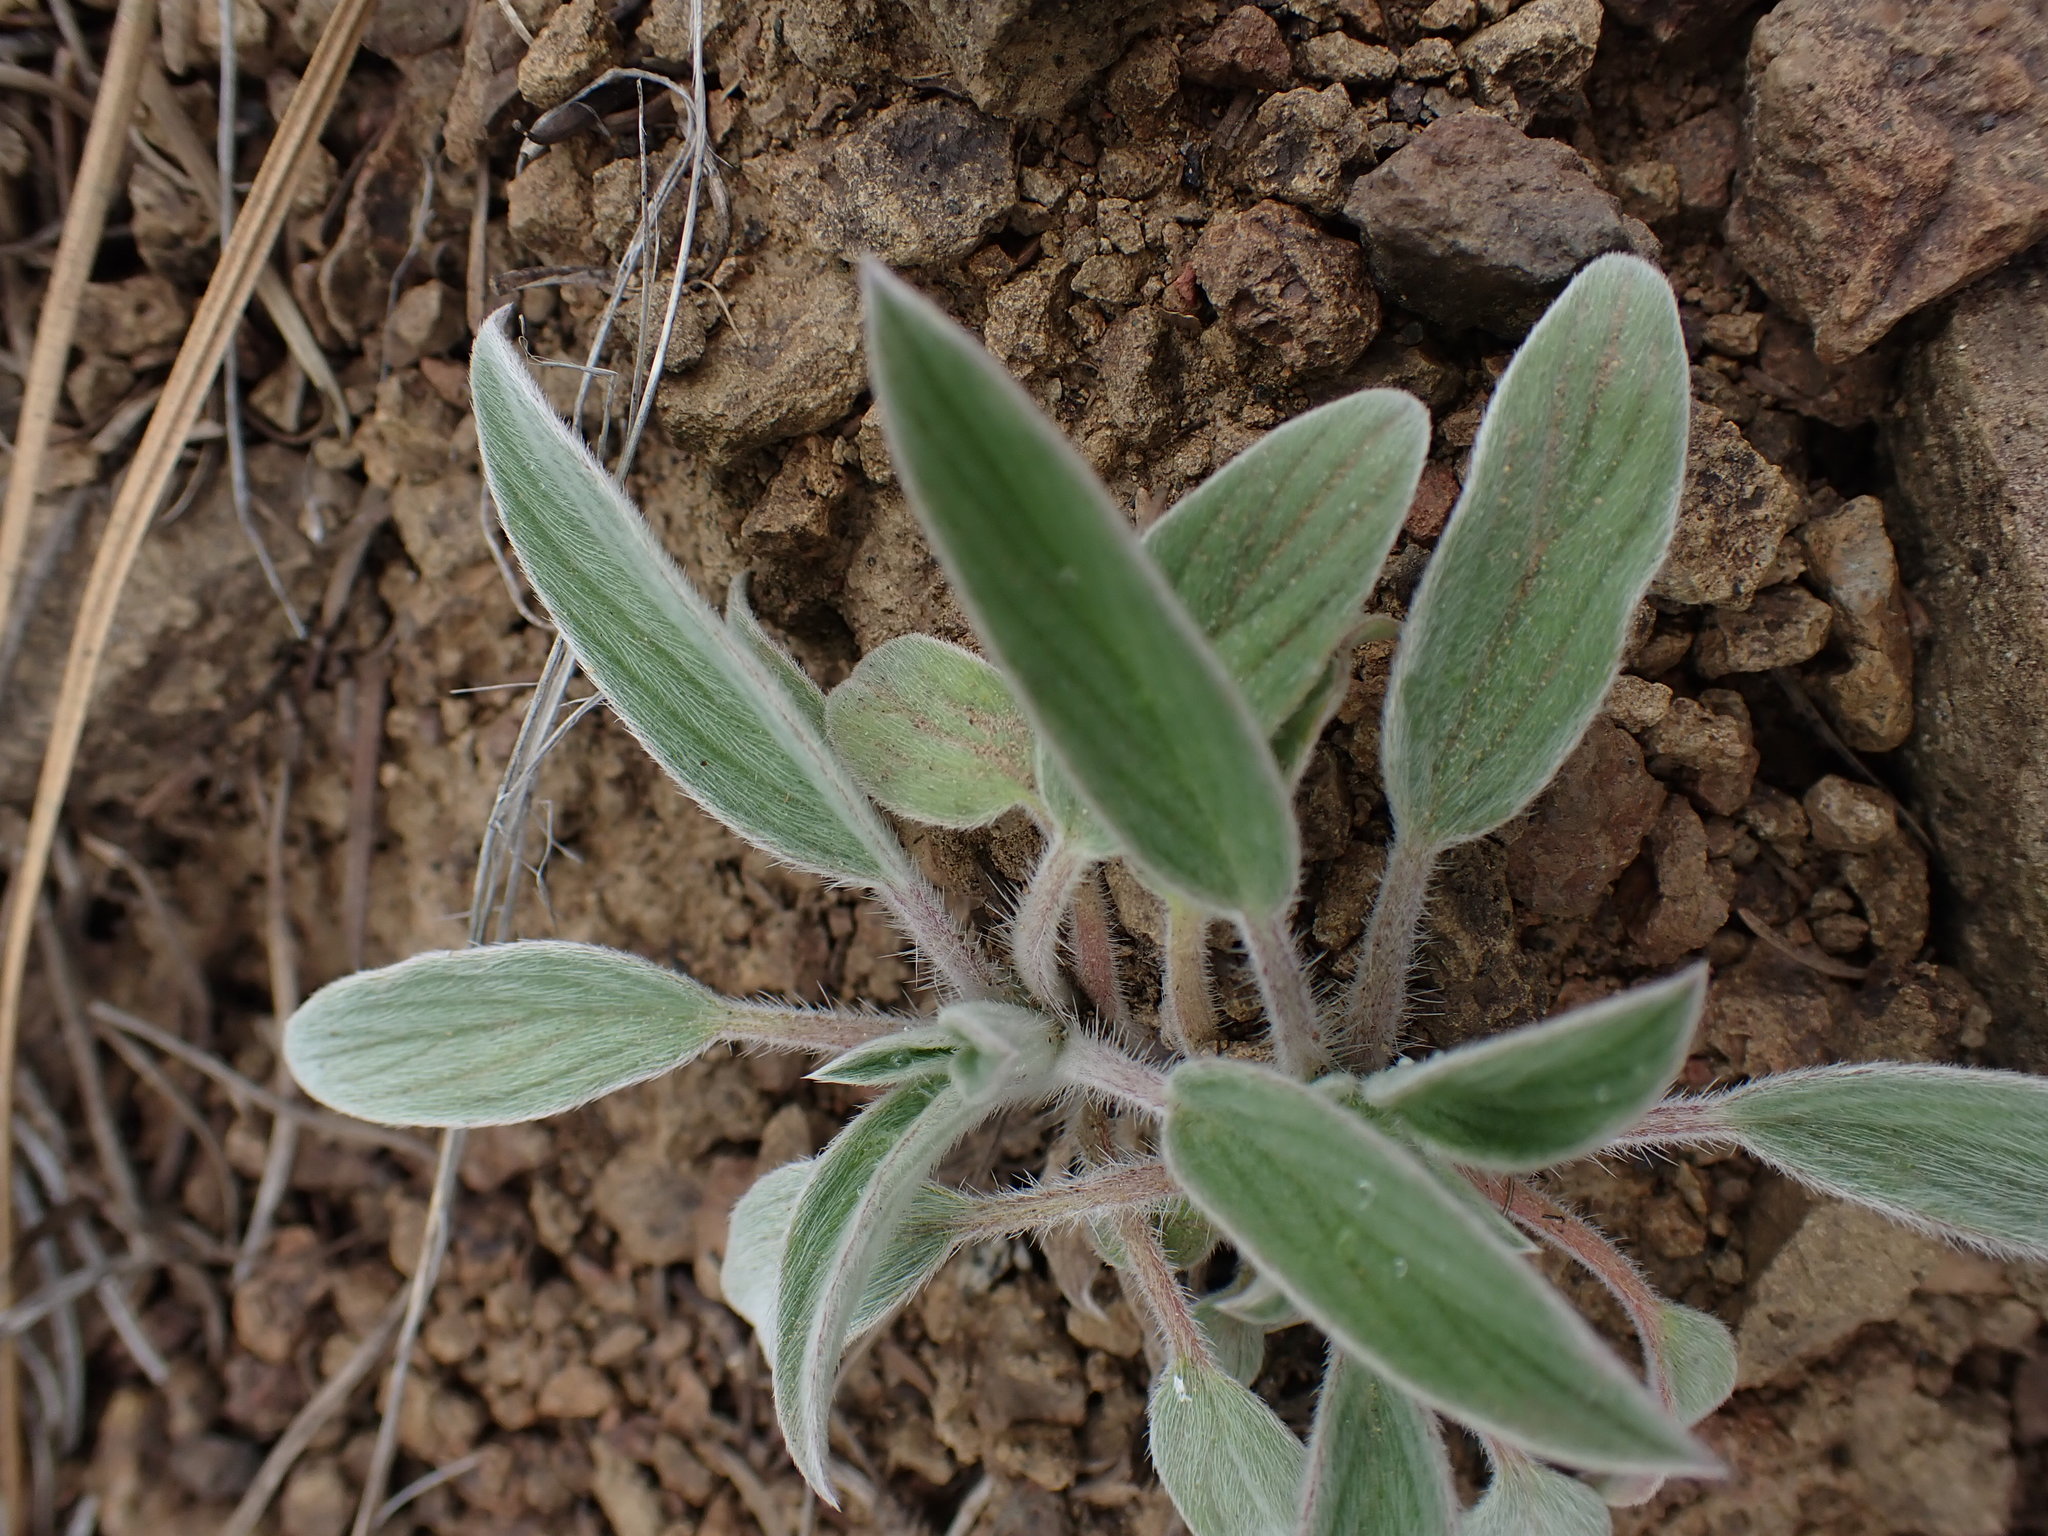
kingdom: Plantae
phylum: Tracheophyta
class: Magnoliopsida
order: Boraginales
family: Hydrophyllaceae
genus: Phacelia
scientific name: Phacelia hastata
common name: Silver-leaved phacelia
